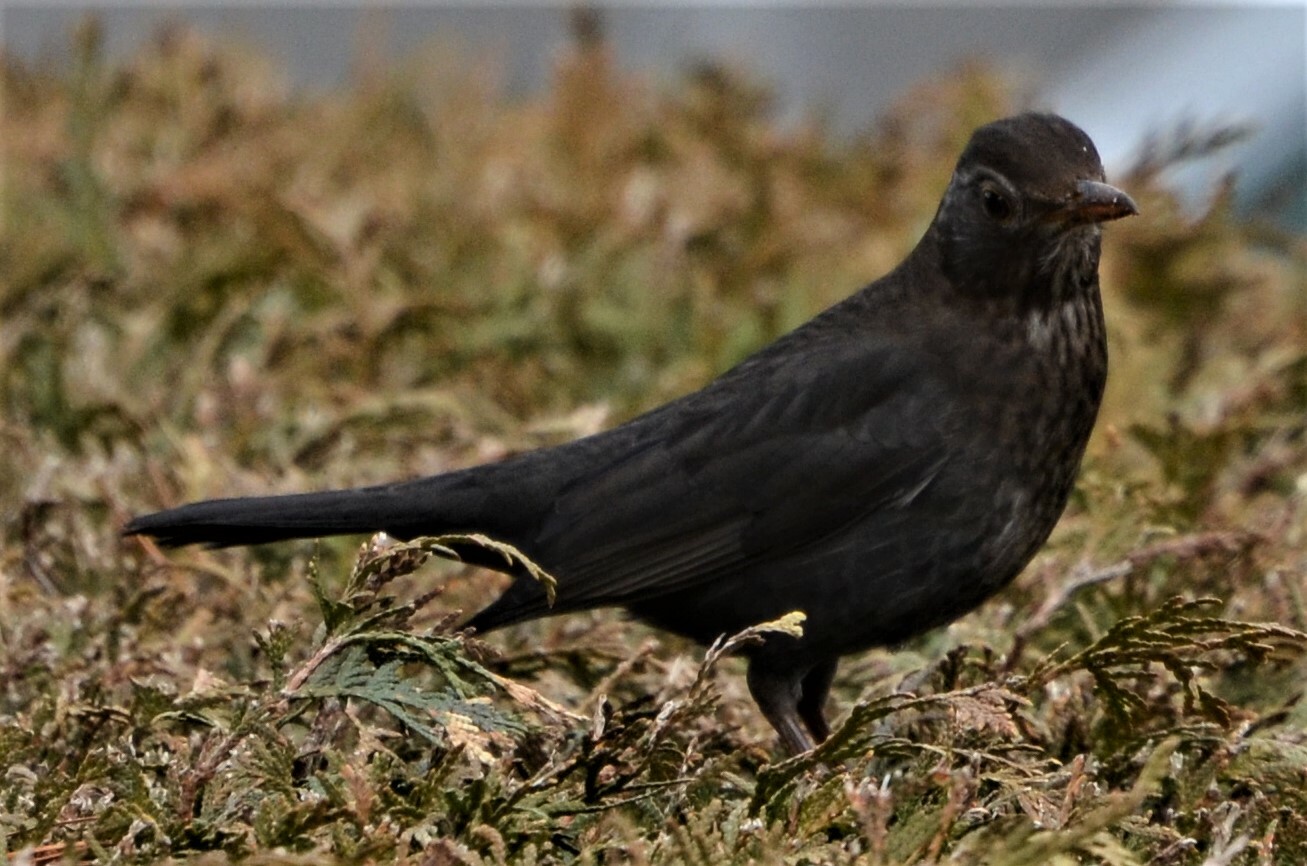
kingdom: Animalia
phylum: Chordata
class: Aves
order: Passeriformes
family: Turdidae
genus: Turdus
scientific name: Turdus merula
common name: Common blackbird
